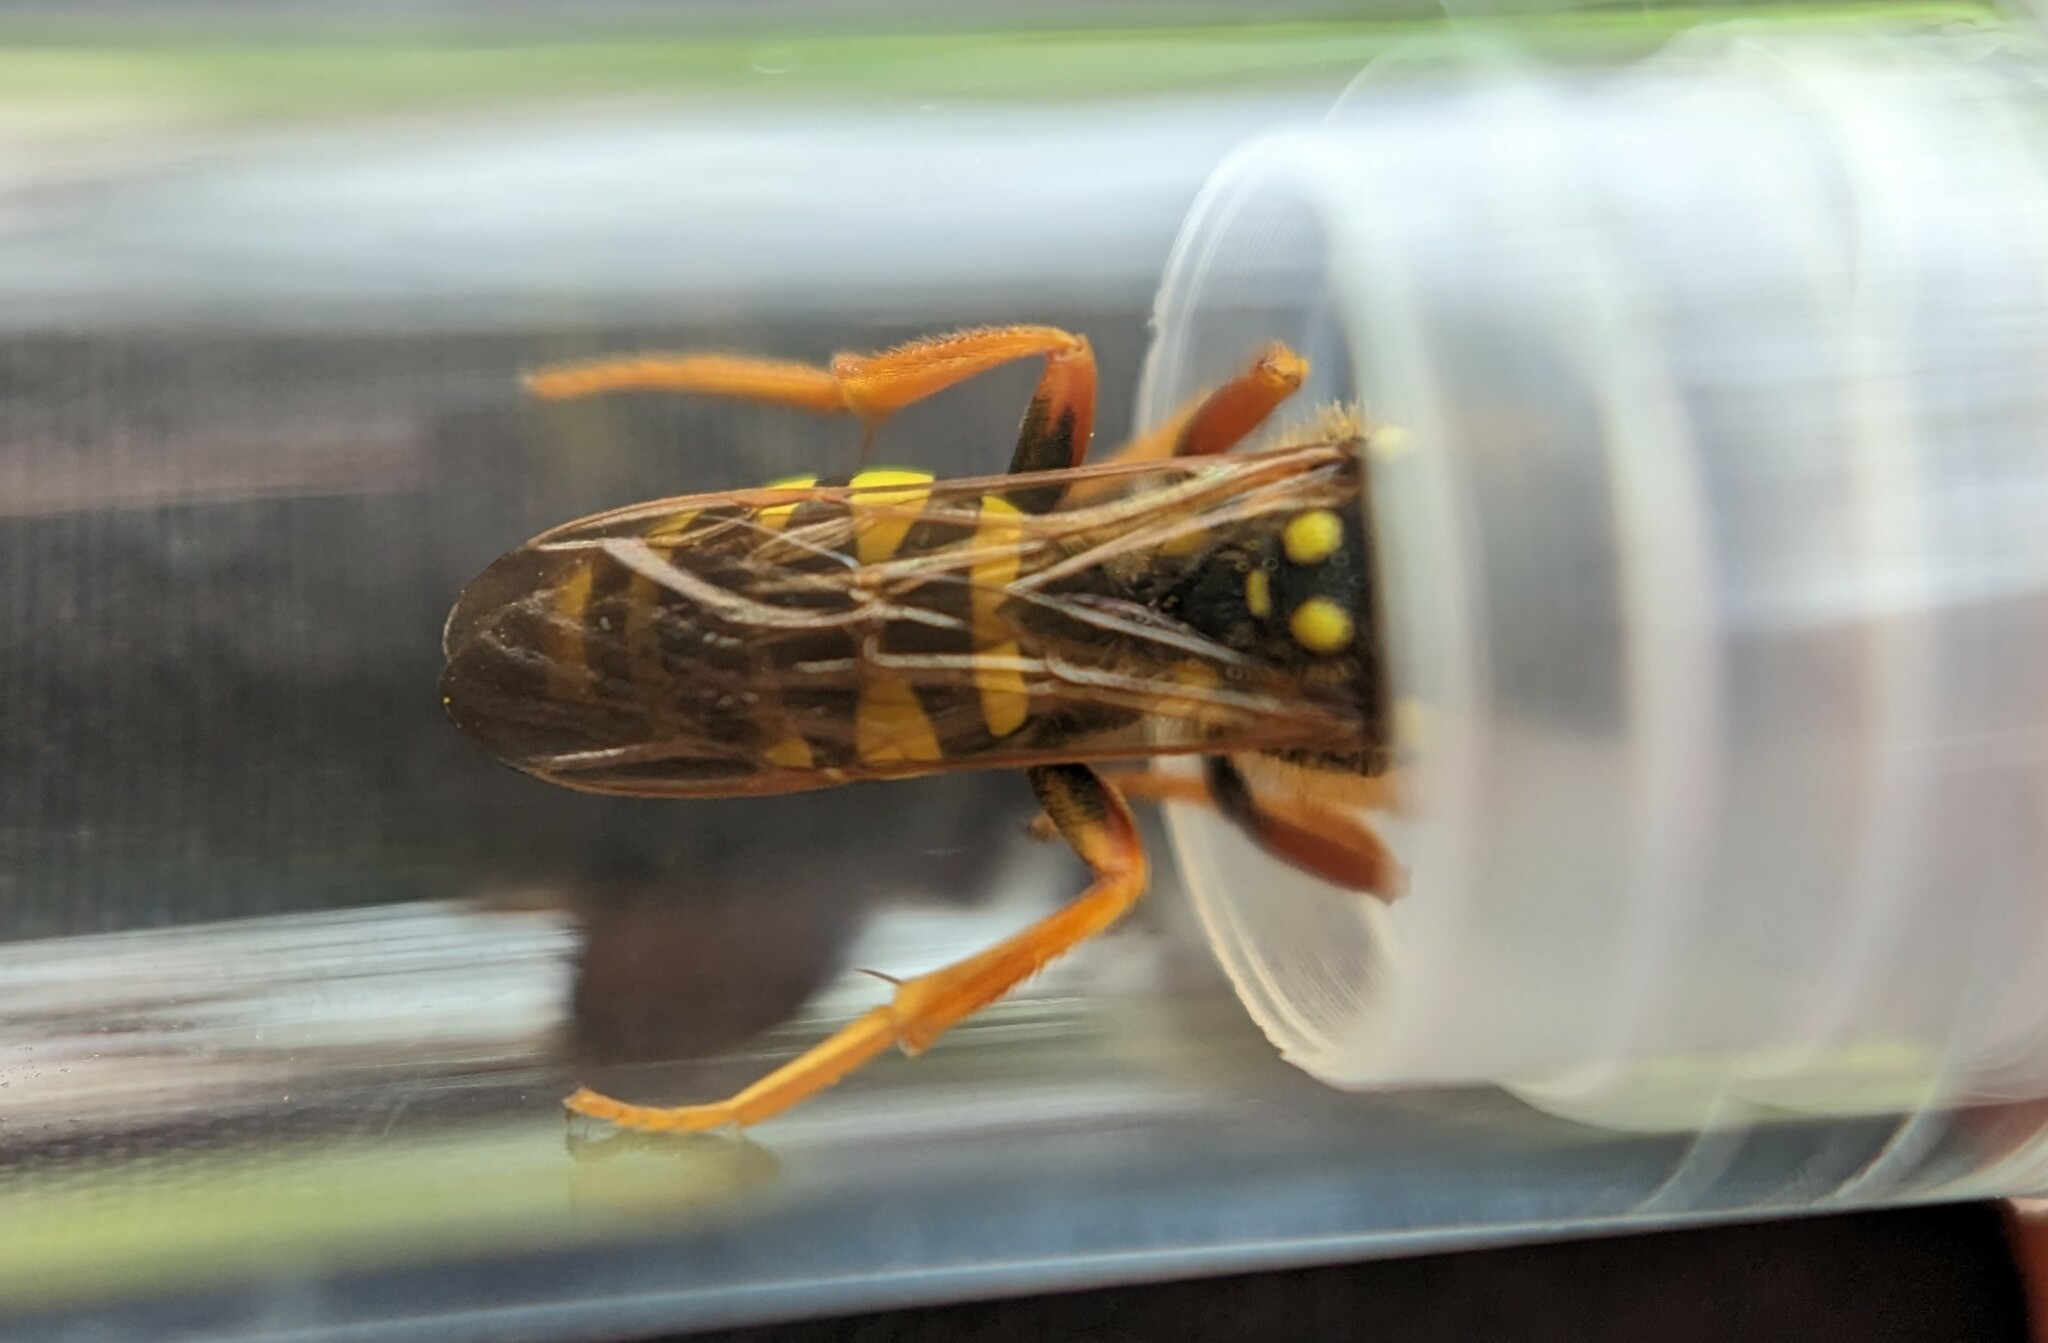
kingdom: Animalia
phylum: Arthropoda
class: Insecta
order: Hymenoptera
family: Apidae
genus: Nomada
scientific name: Nomada goodeniana
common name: Gooden's nomad bee
